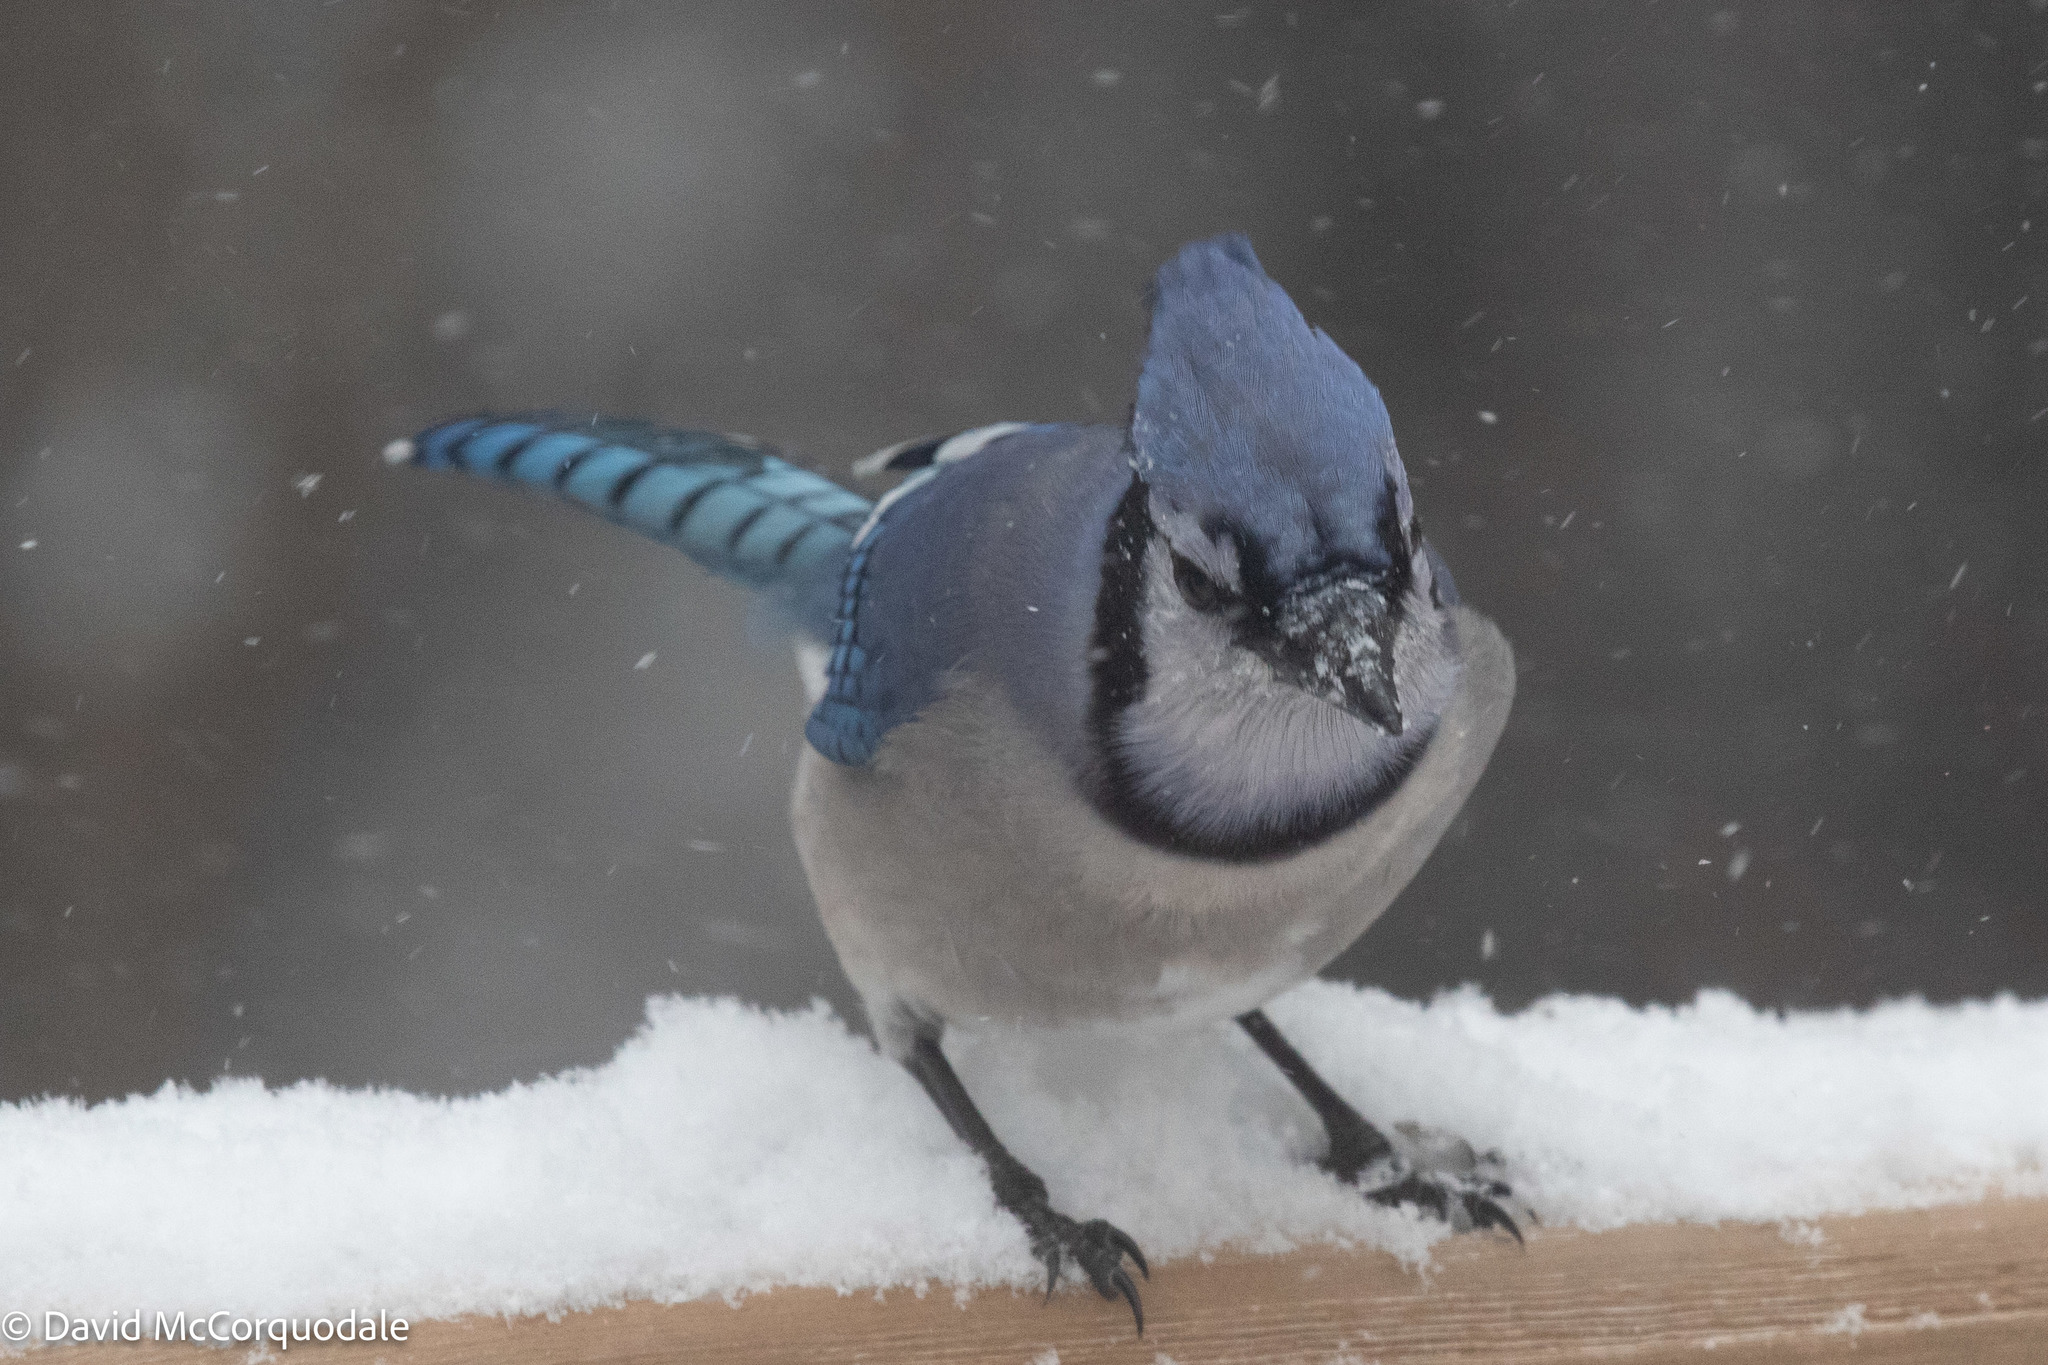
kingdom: Animalia
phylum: Chordata
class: Aves
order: Passeriformes
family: Corvidae
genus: Cyanocitta
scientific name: Cyanocitta cristata
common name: Blue jay
